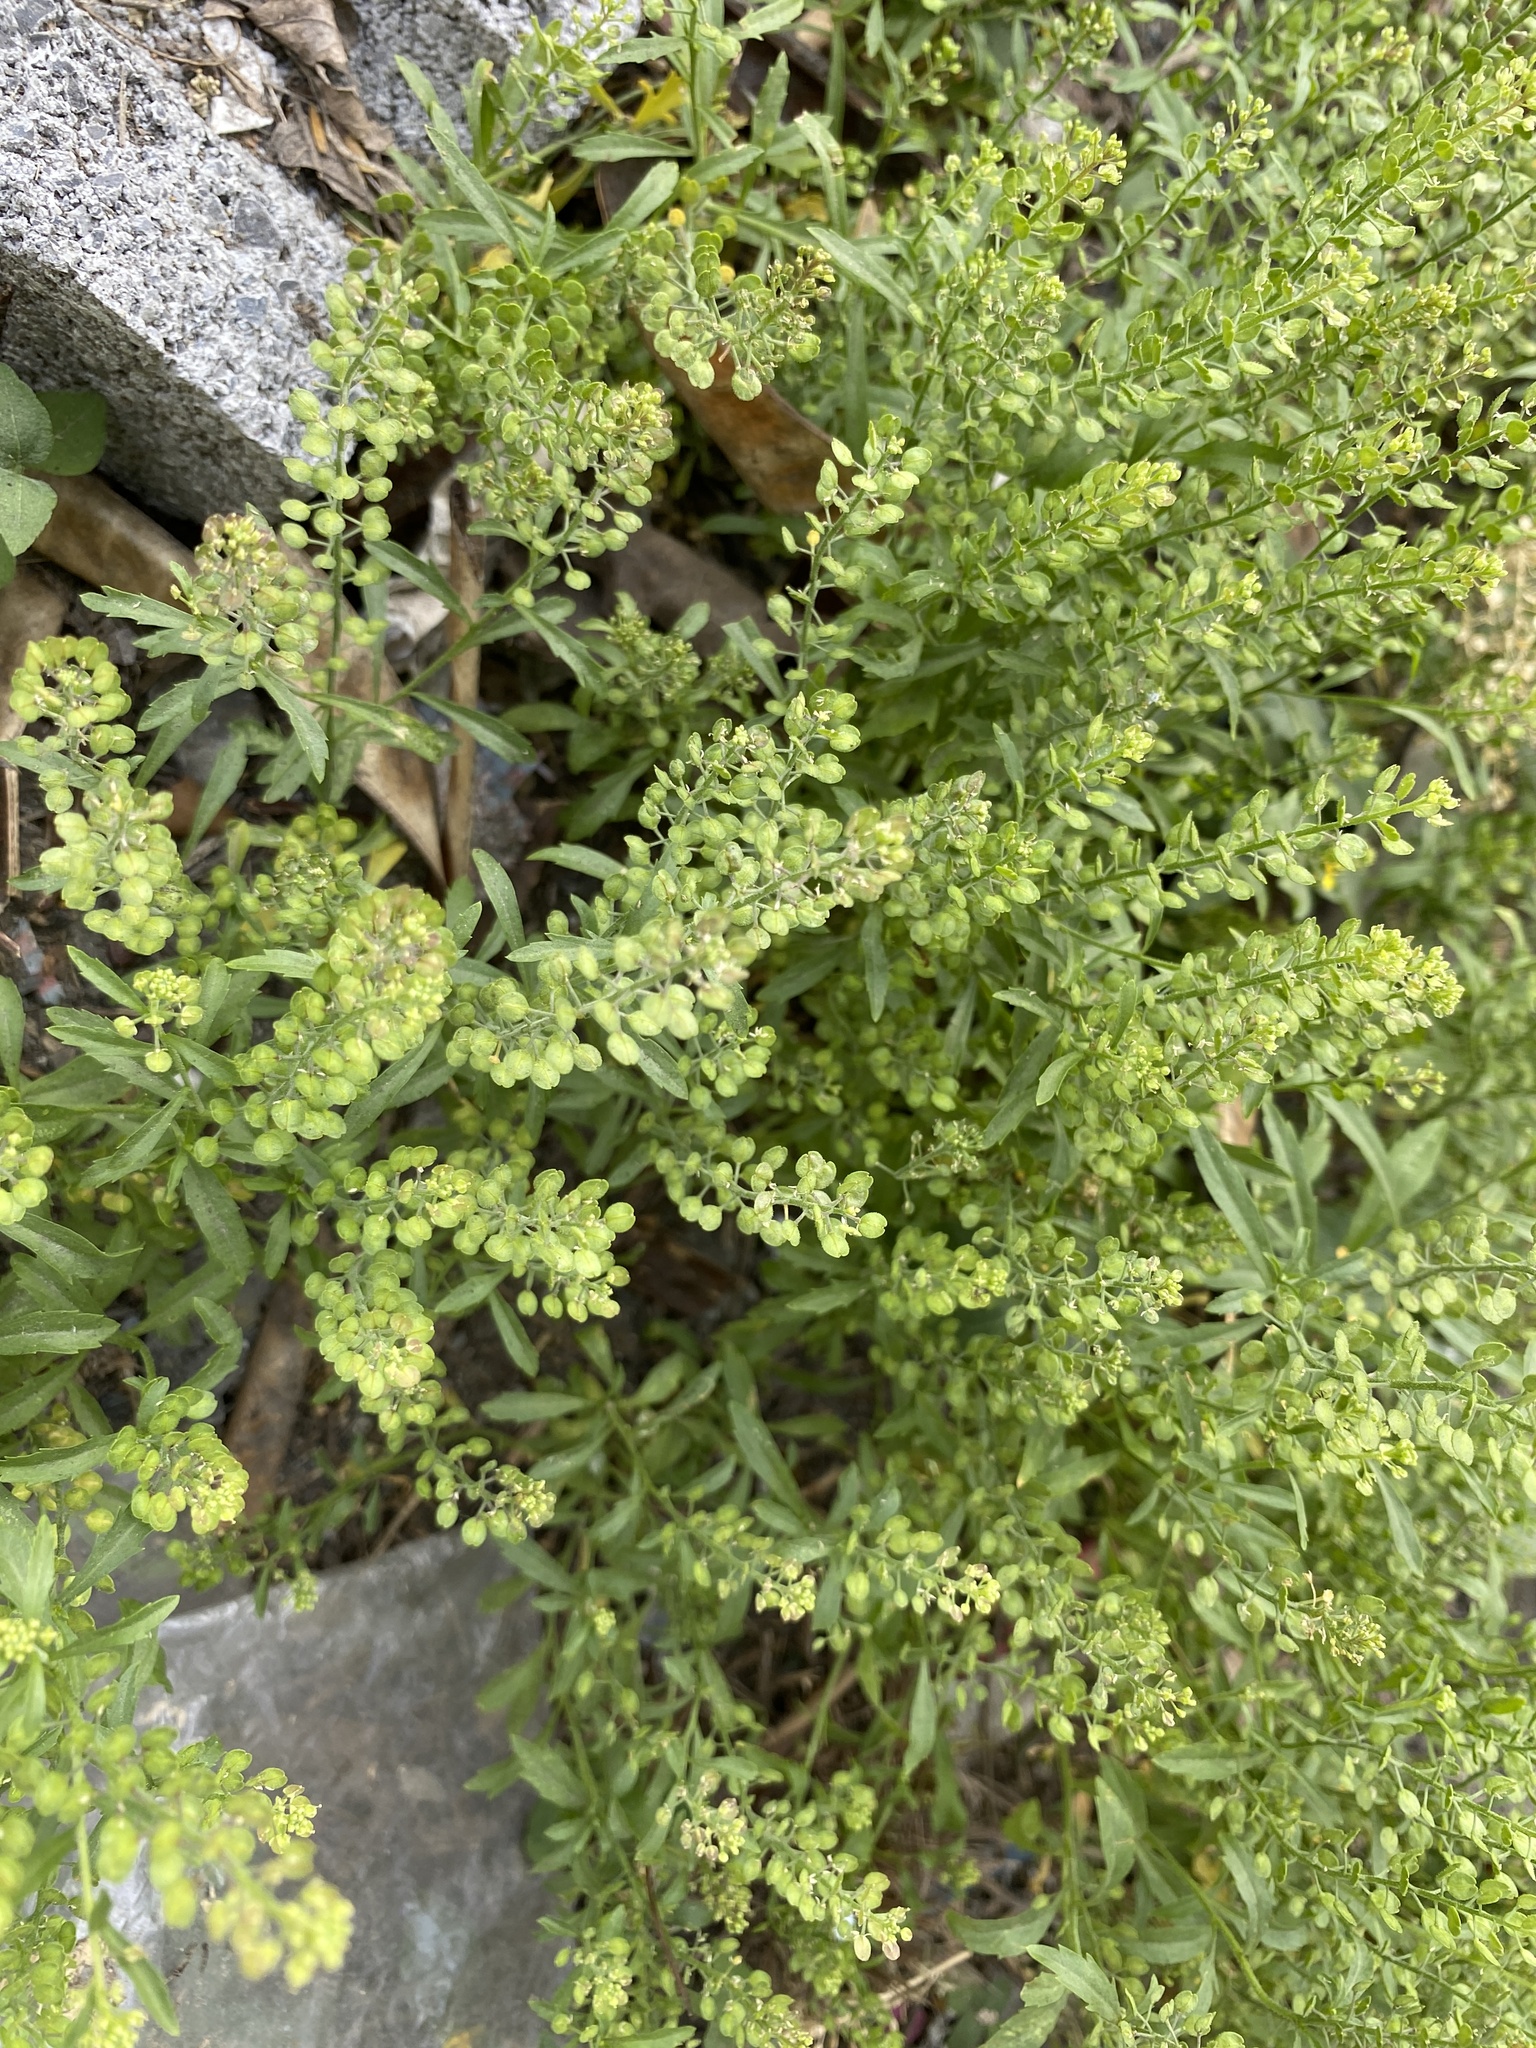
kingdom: Plantae
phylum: Tracheophyta
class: Magnoliopsida
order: Brassicales
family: Brassicaceae
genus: Lepidium
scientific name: Lepidium virginicum
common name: Least pepperwort
